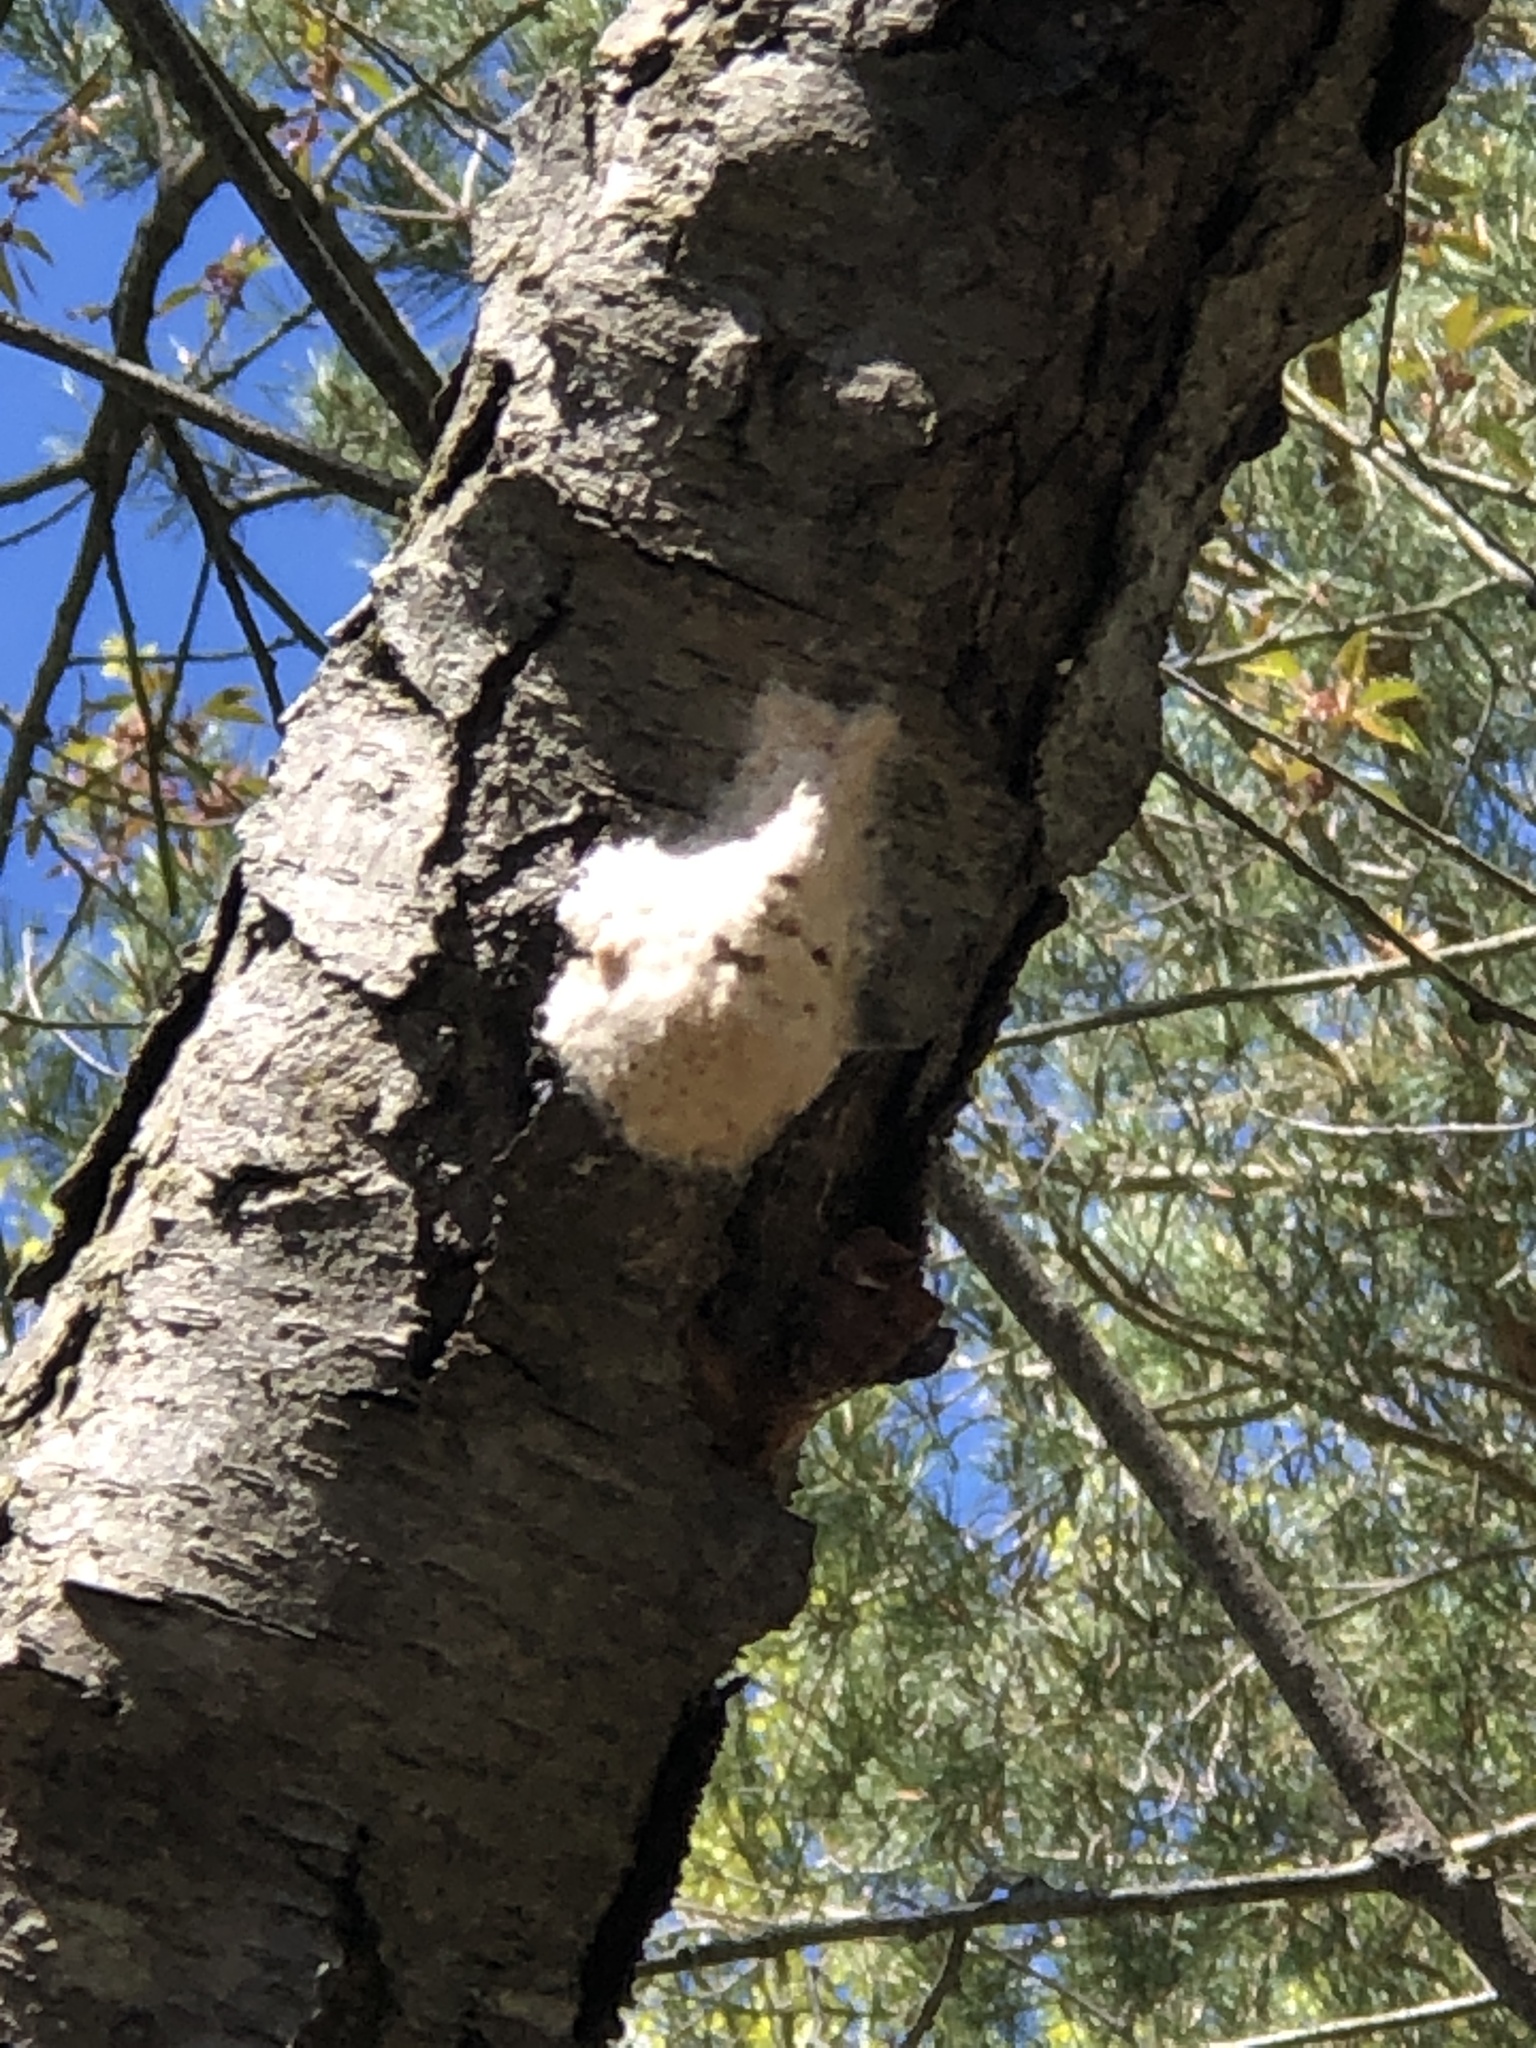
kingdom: Animalia
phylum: Arthropoda
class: Insecta
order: Lepidoptera
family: Erebidae
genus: Lymantria
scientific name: Lymantria dispar
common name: Gypsy moth
